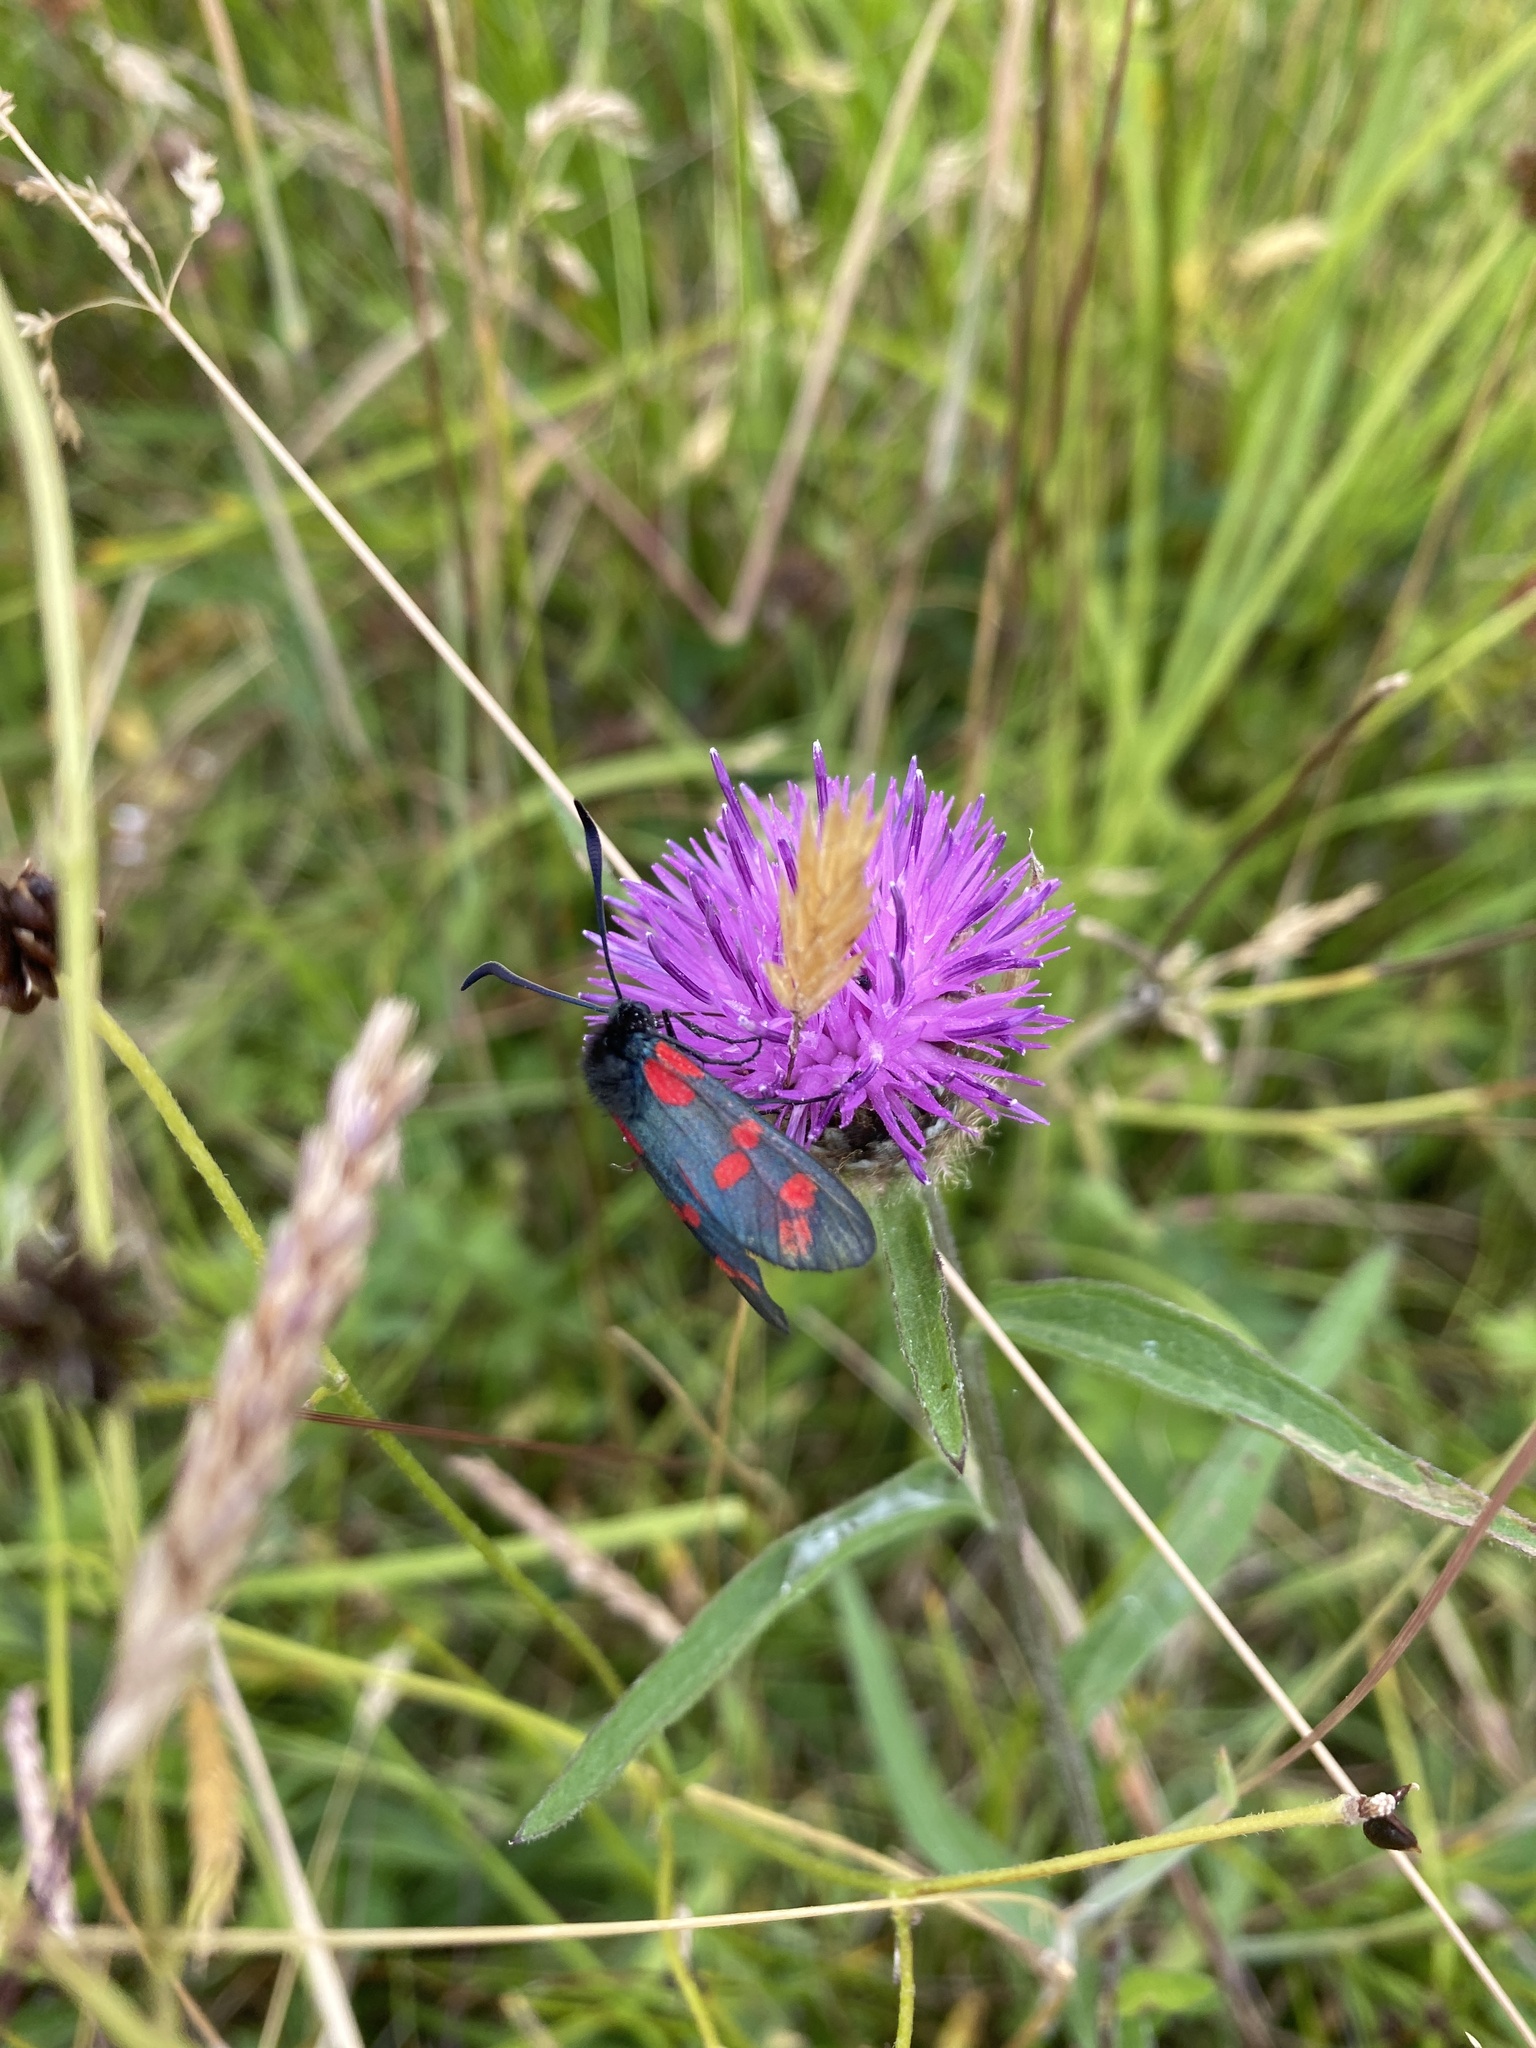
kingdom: Animalia
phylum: Arthropoda
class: Insecta
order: Lepidoptera
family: Zygaenidae
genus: Zygaena
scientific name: Zygaena filipendulae
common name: Six-spot burnet
